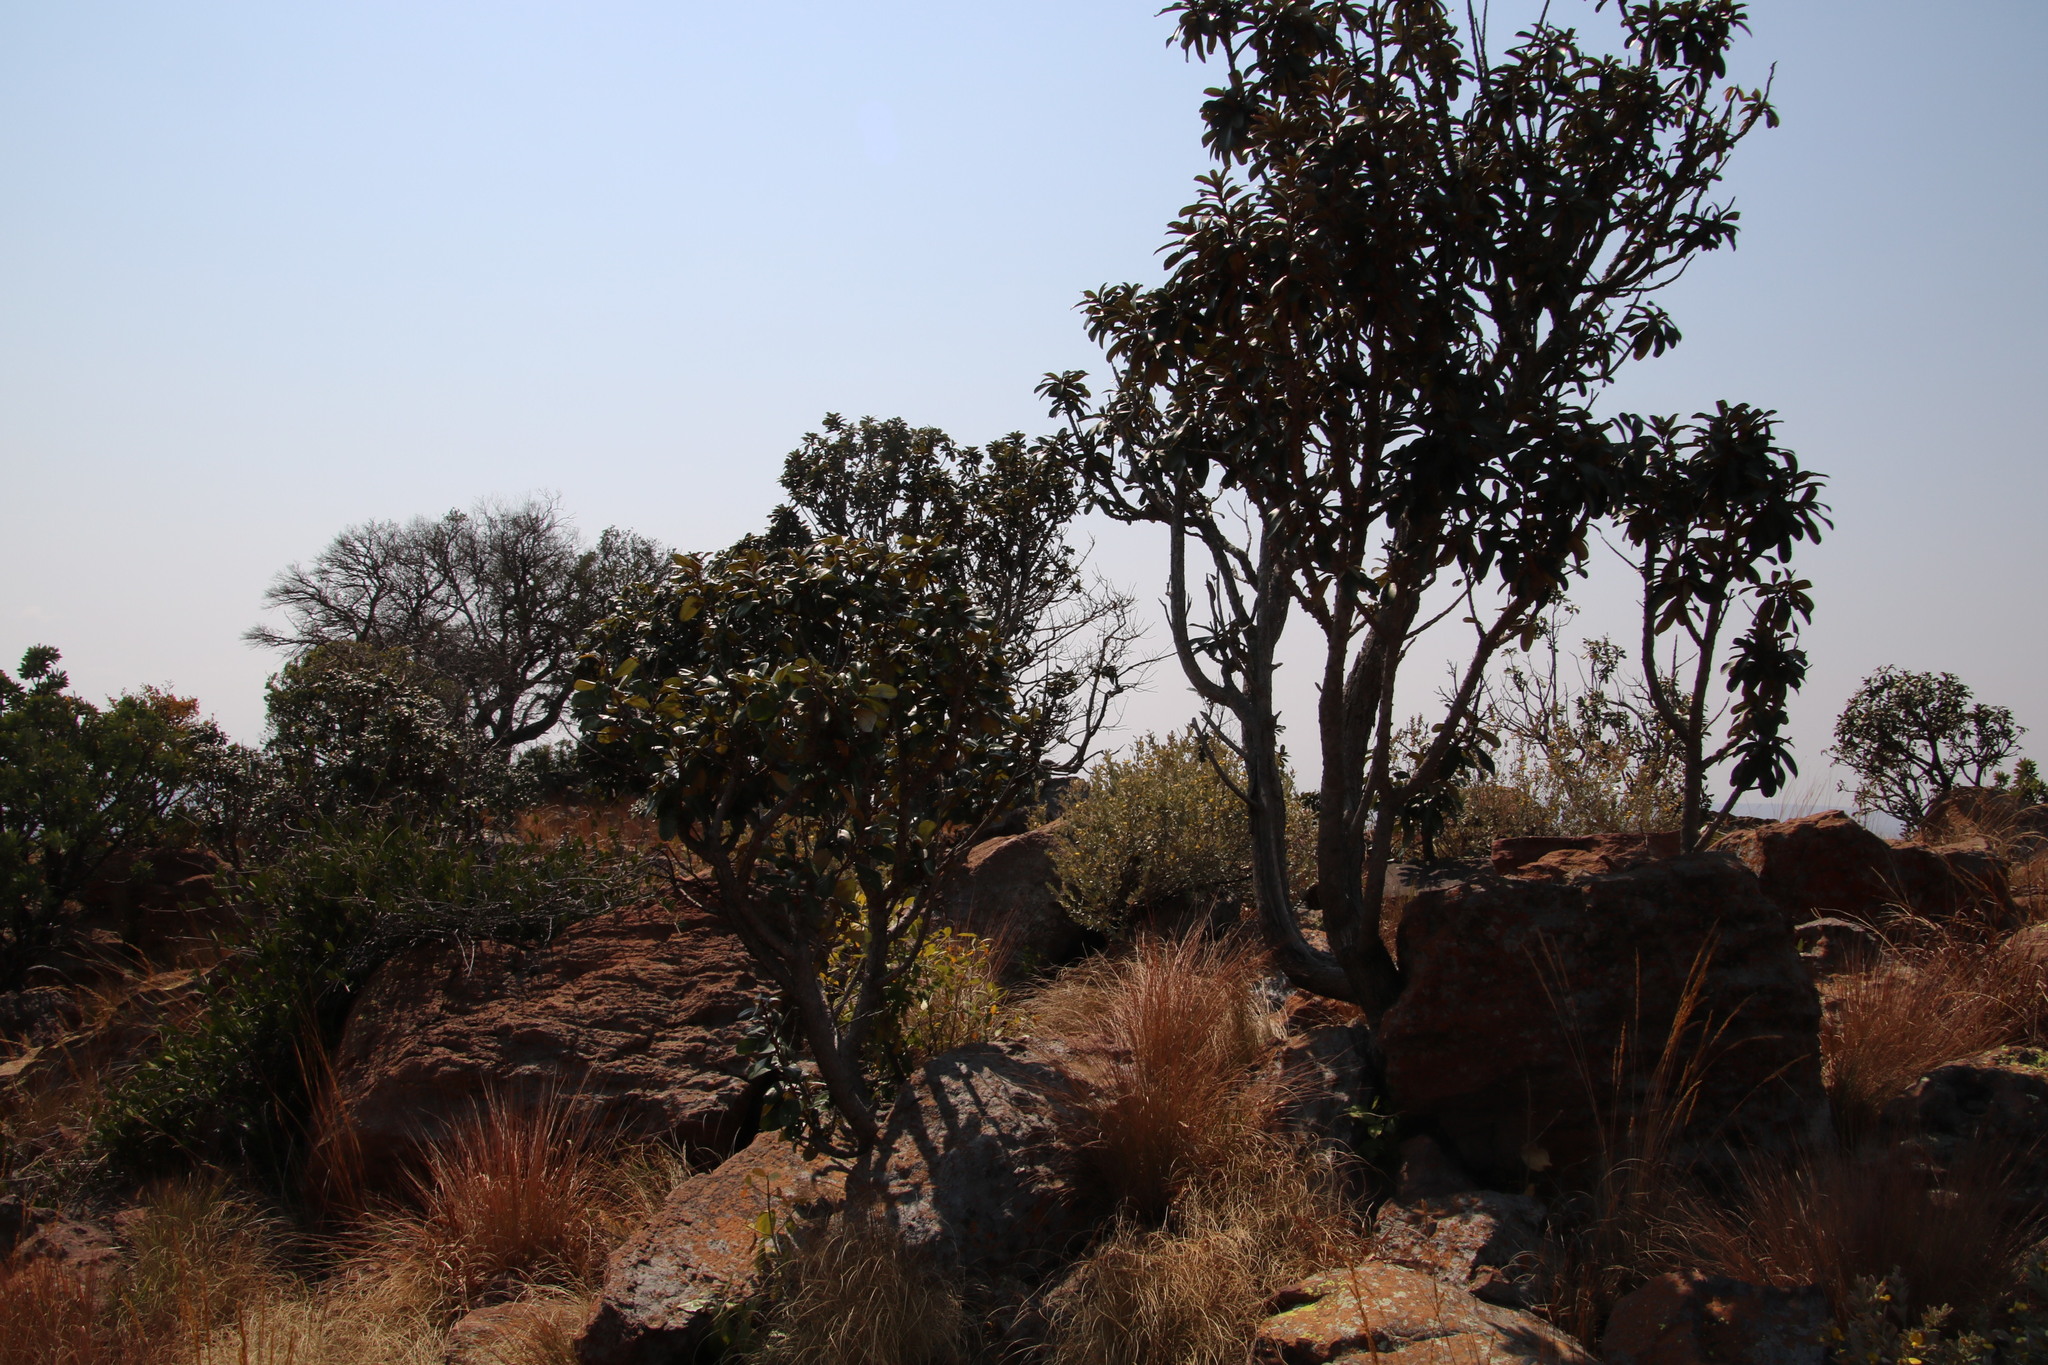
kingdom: Plantae
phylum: Tracheophyta
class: Magnoliopsida
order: Ericales
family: Sapotaceae
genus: Englerophytum
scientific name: Englerophytum magalismontanum
